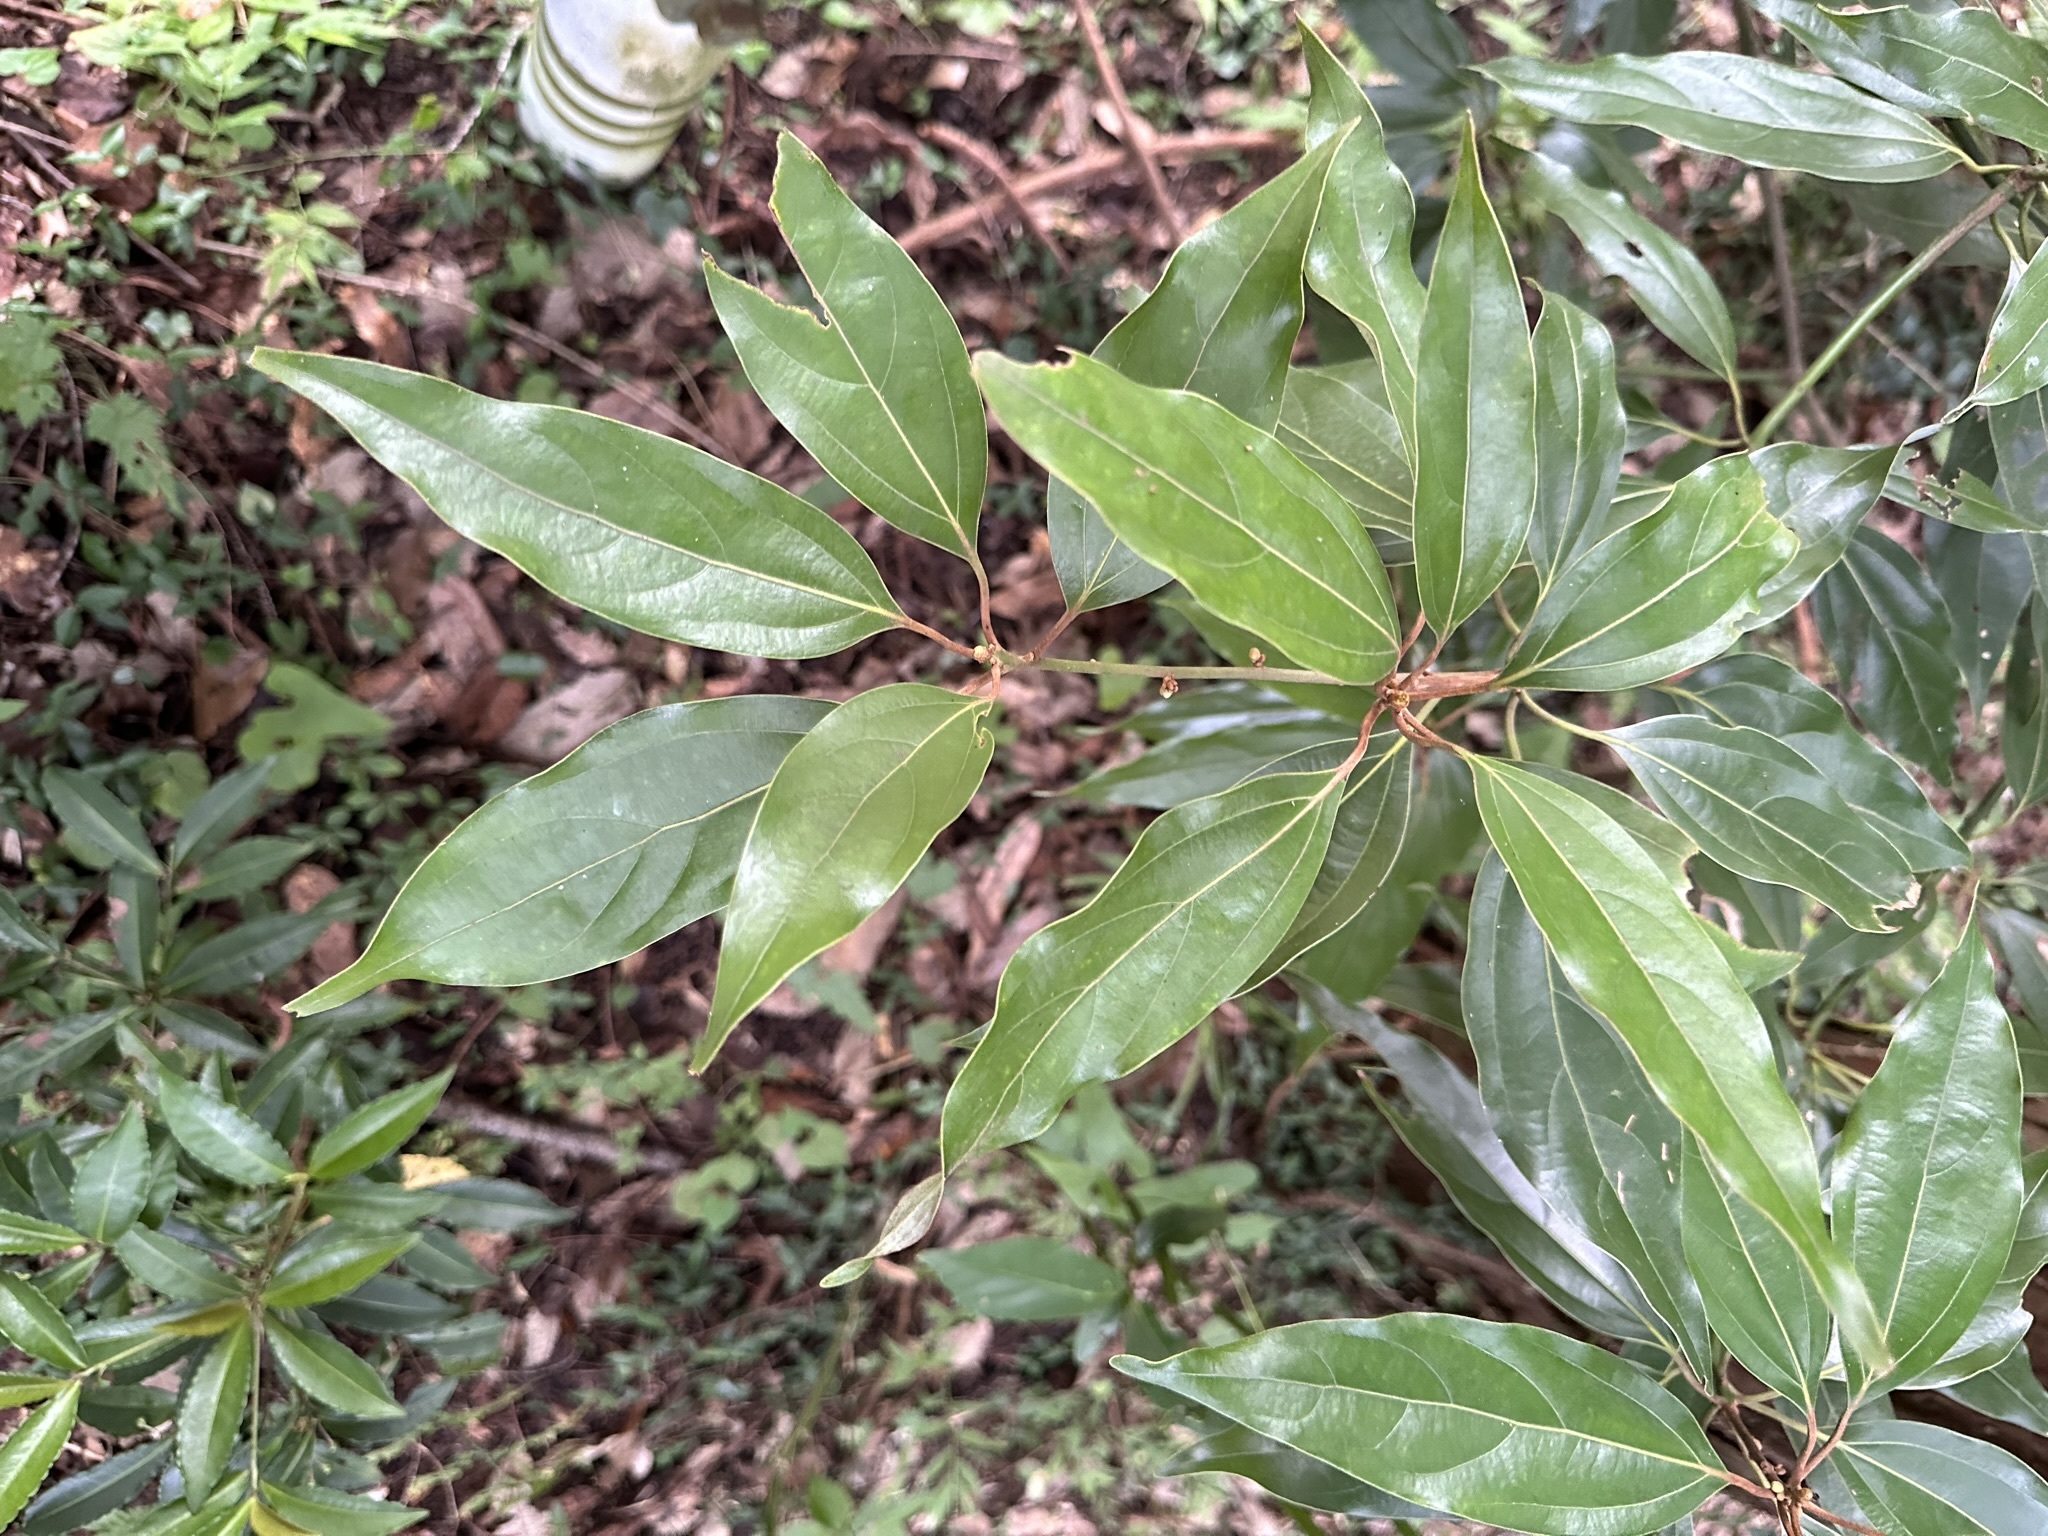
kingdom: Plantae
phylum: Tracheophyta
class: Magnoliopsida
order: Laurales
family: Lauraceae
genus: Neolitsea
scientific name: Neolitsea sericea
